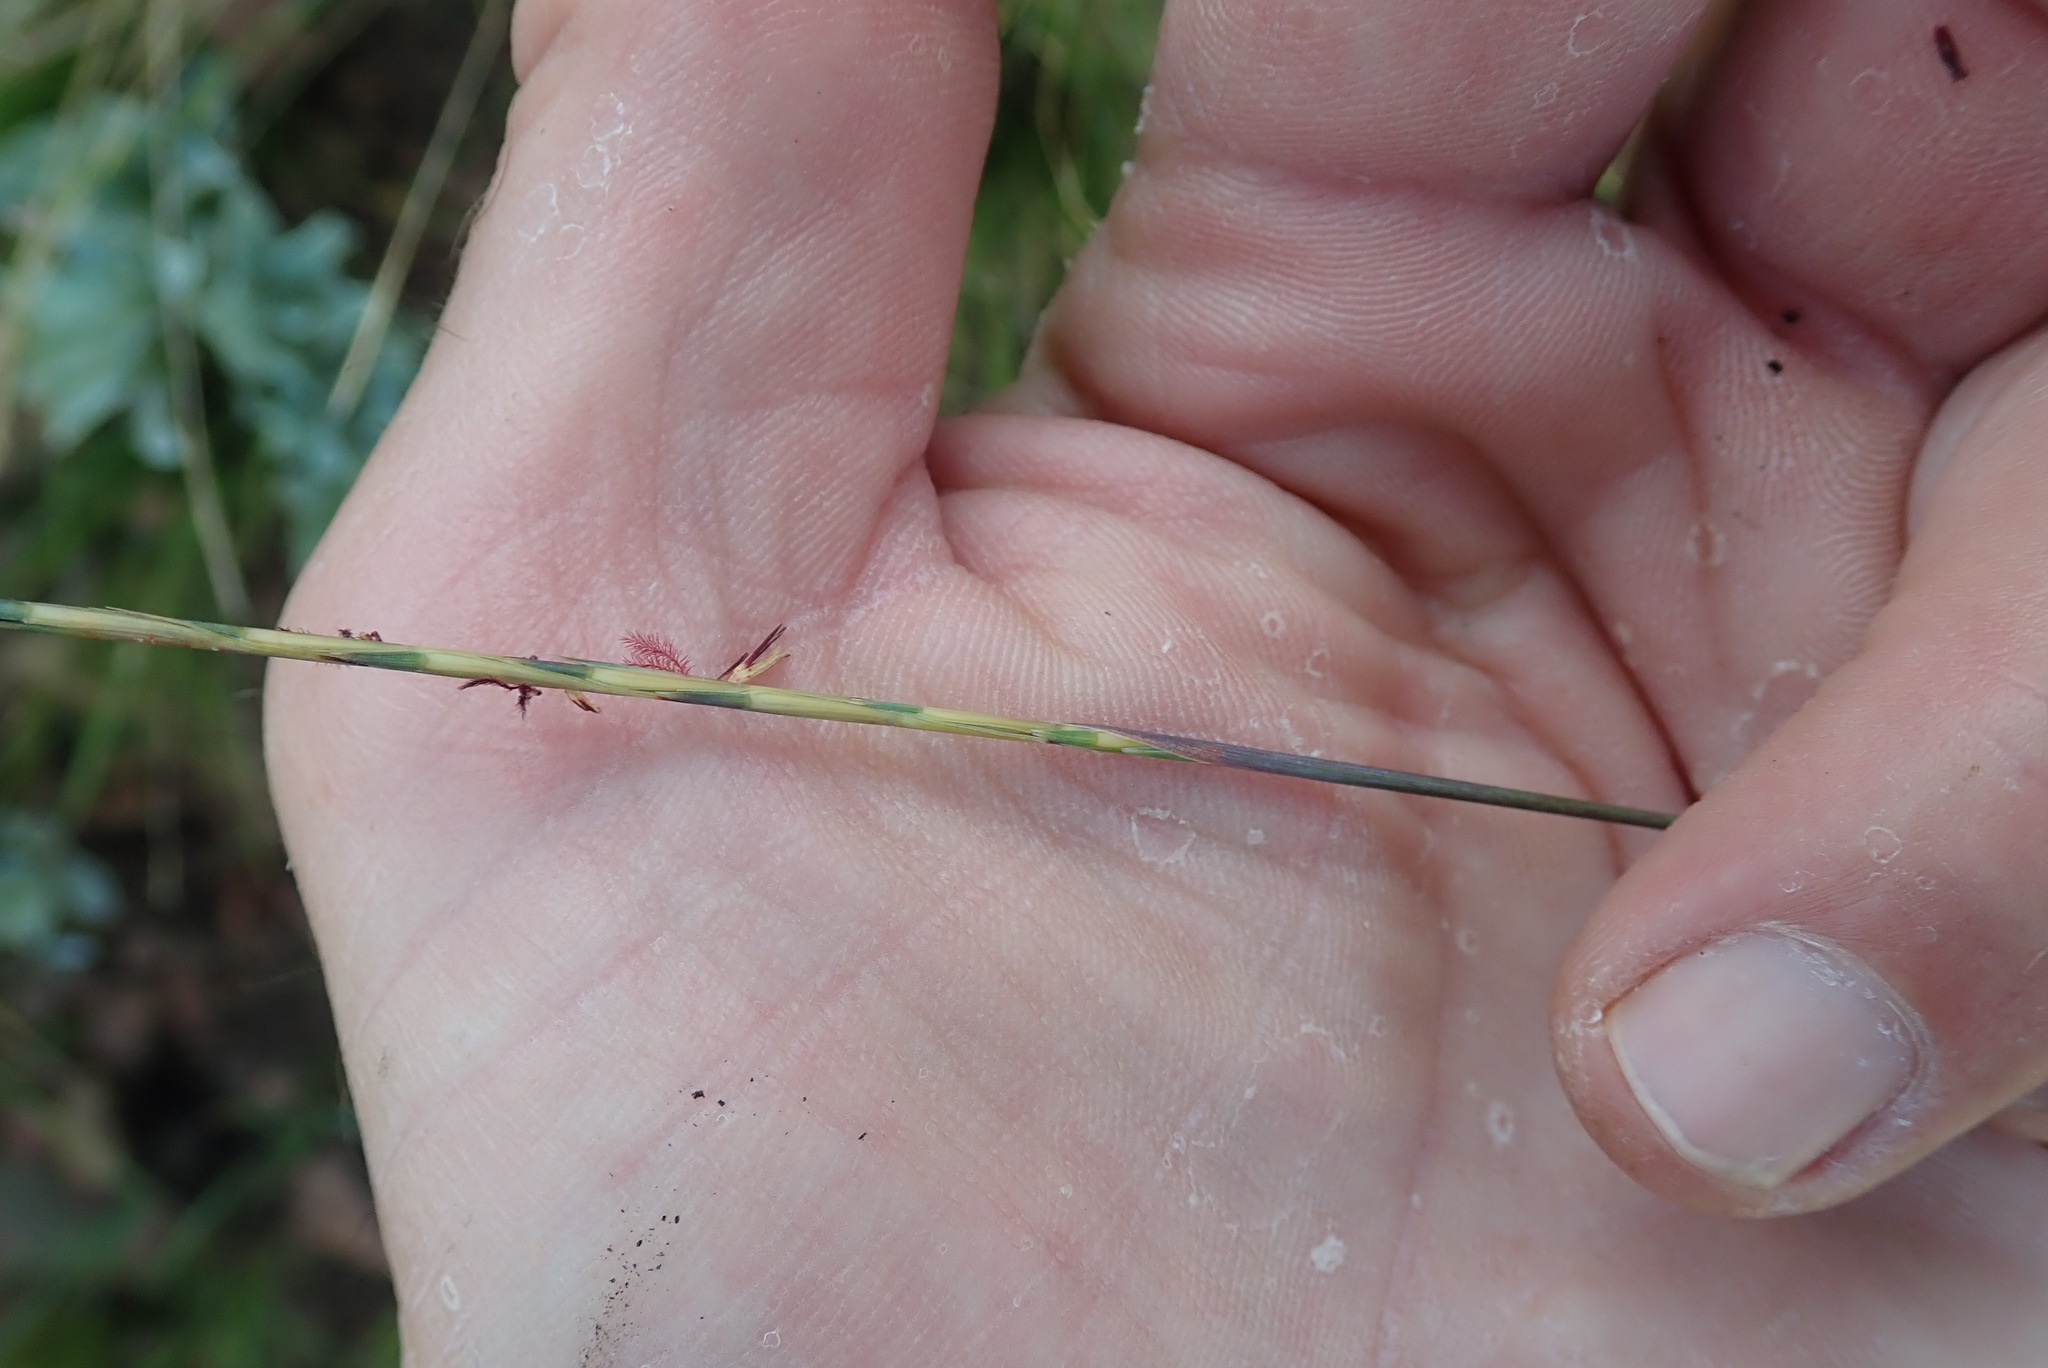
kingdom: Plantae
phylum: Tracheophyta
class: Liliopsida
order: Poales
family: Poaceae
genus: Schizachyrium
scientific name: Schizachyrium sanguineum
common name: Crimson bluestem
